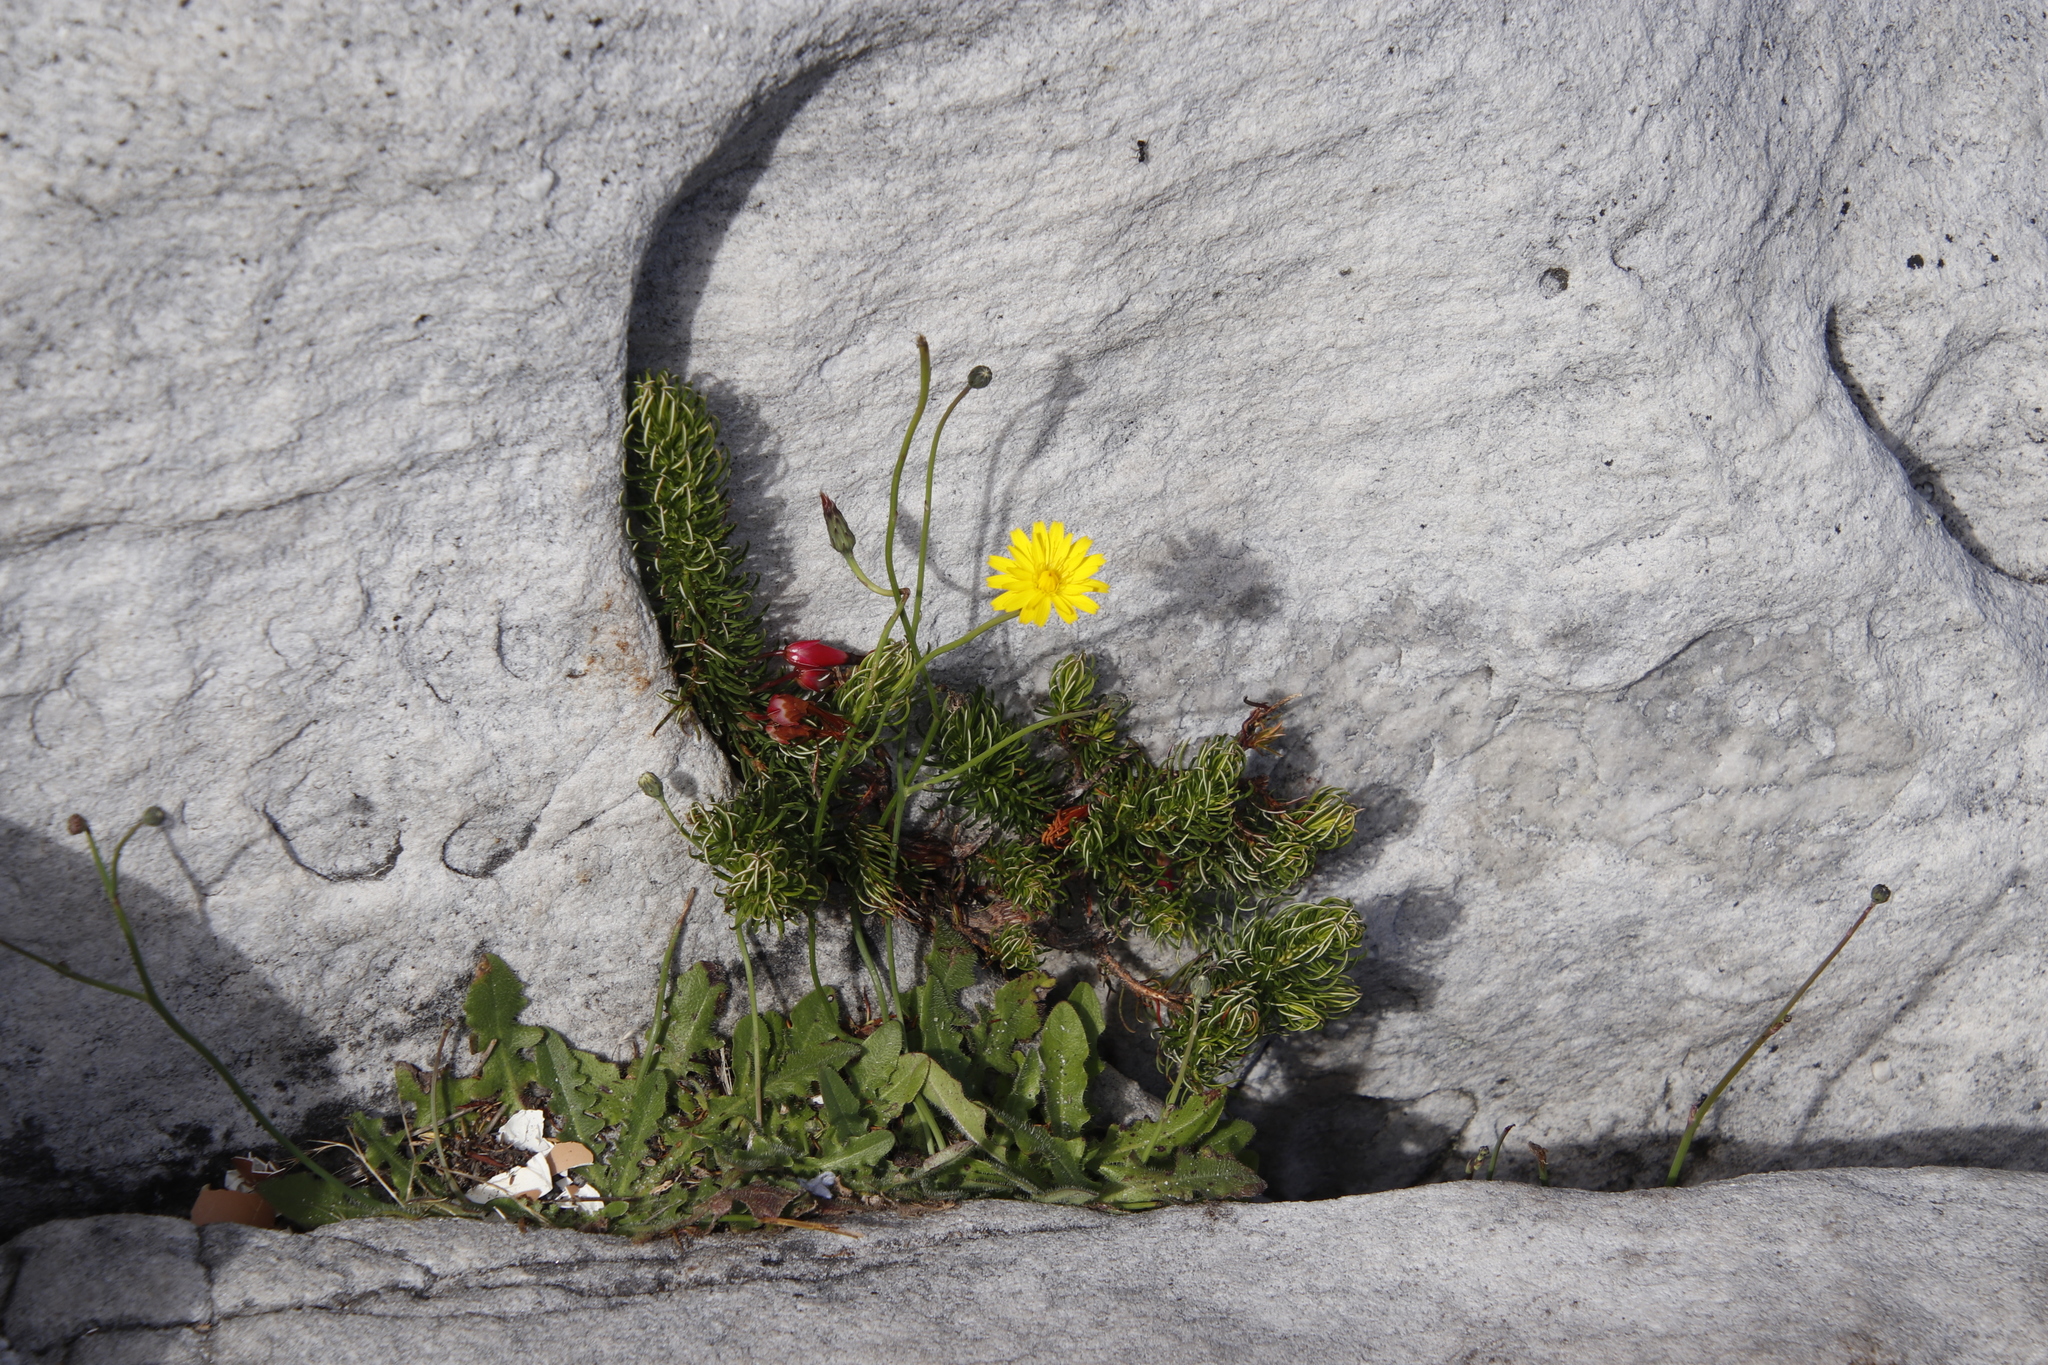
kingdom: Plantae
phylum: Tracheophyta
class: Magnoliopsida
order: Asterales
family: Asteraceae
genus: Hypochaeris
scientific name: Hypochaeris radicata
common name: Flatweed
